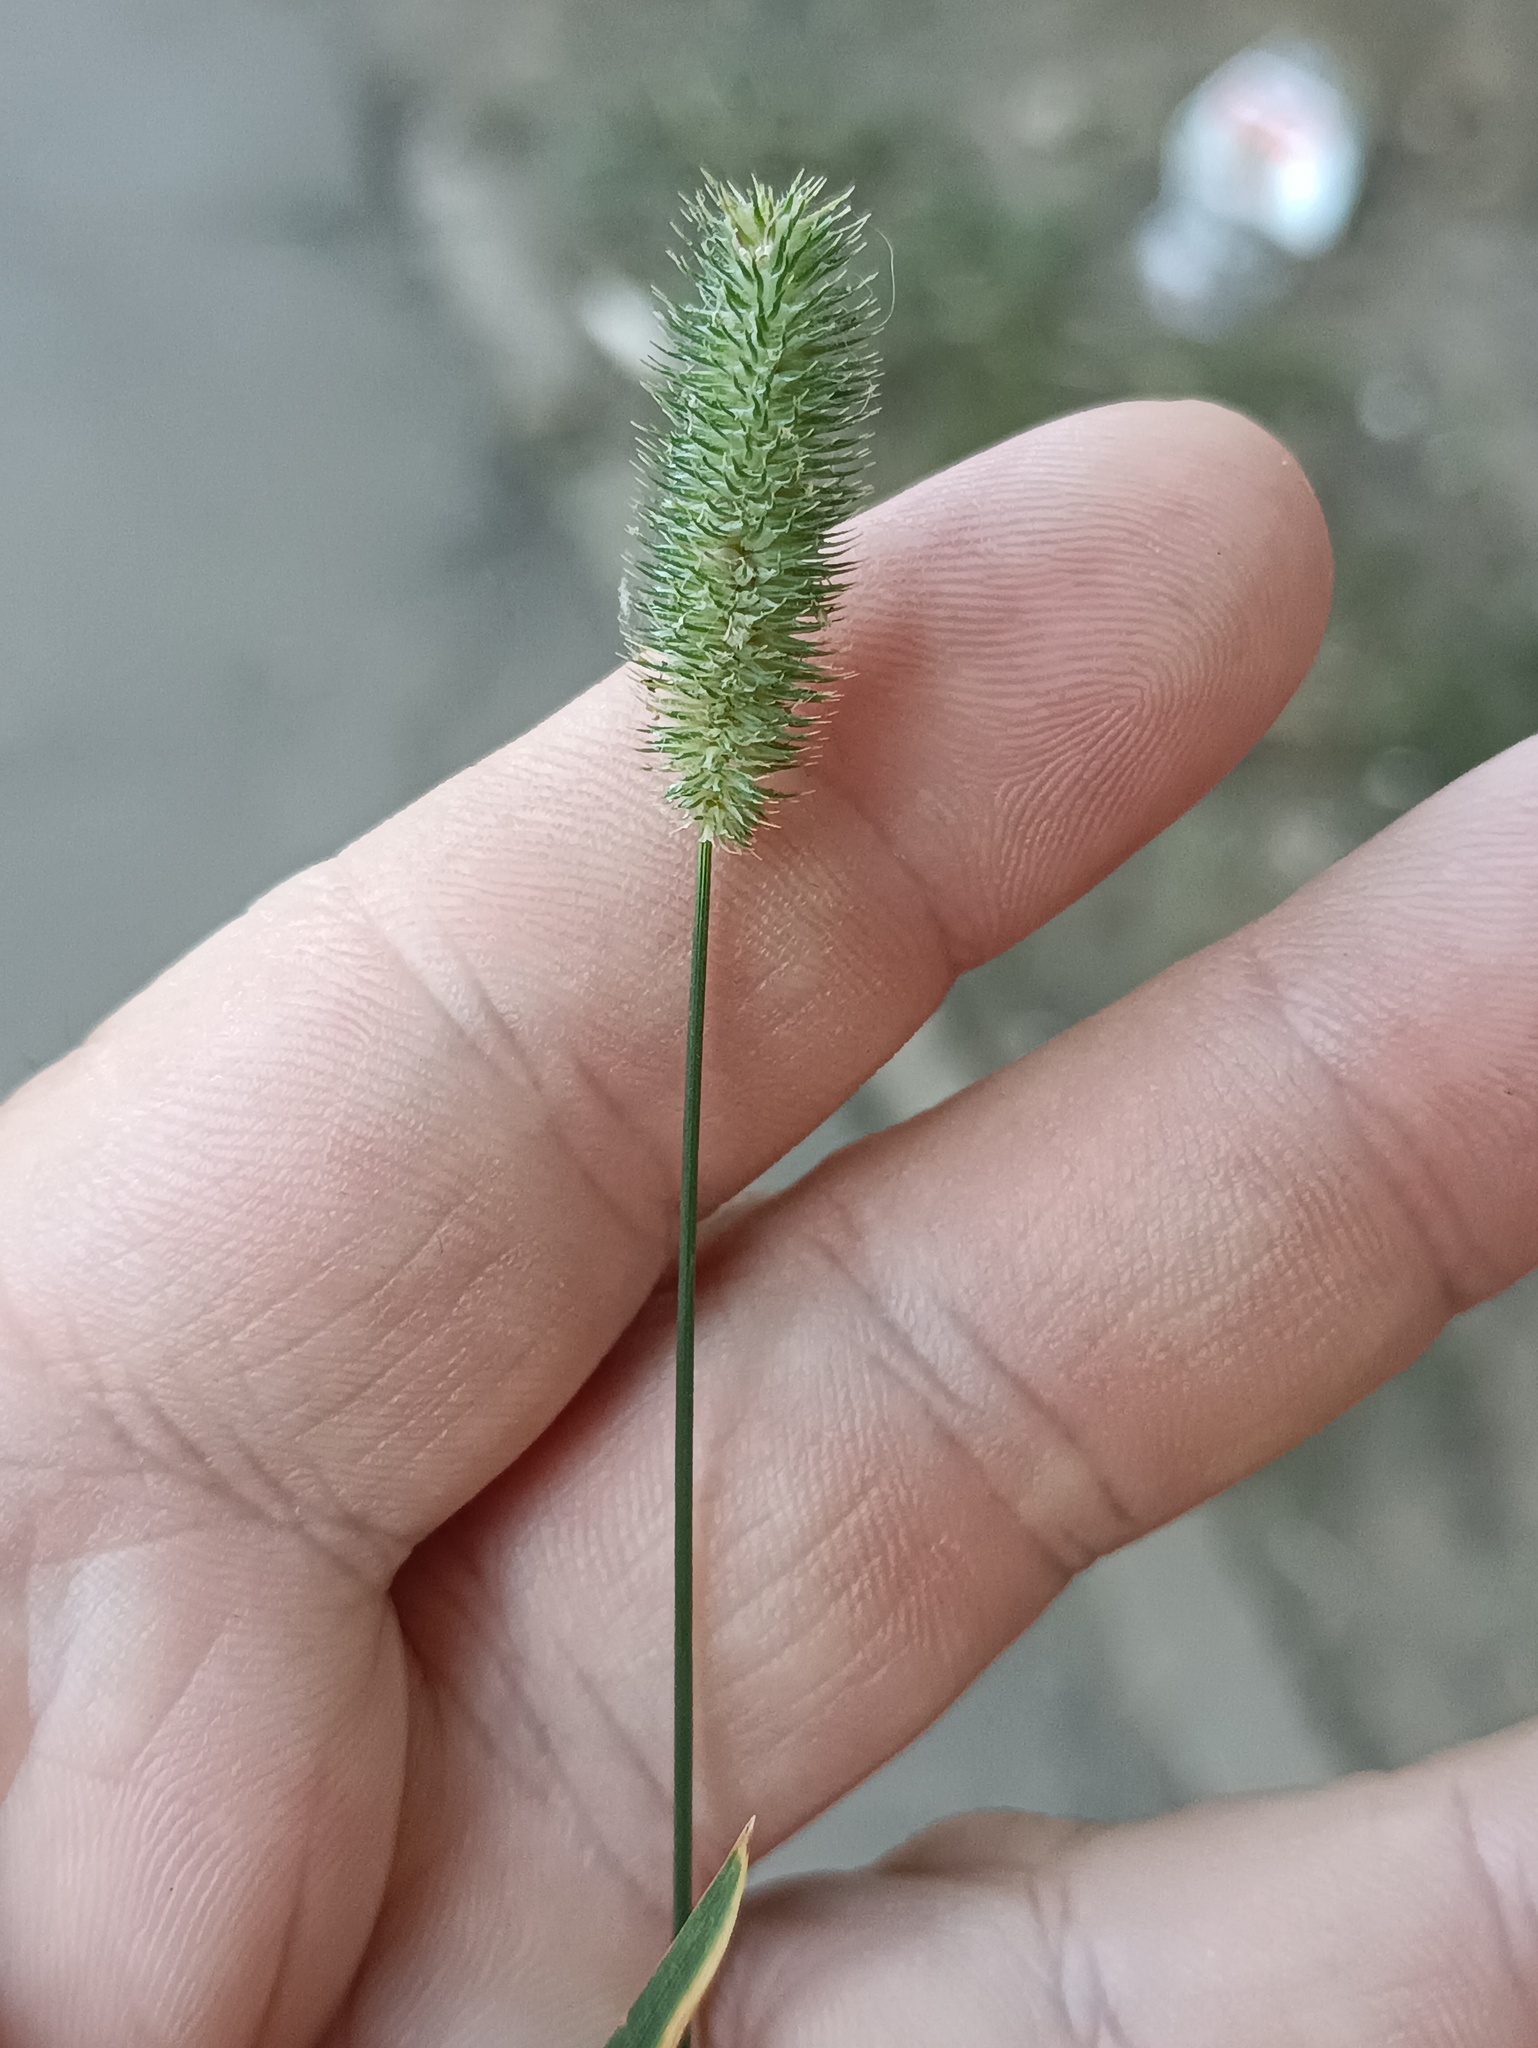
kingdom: Plantae
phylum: Tracheophyta
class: Liliopsida
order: Poales
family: Poaceae
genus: Phleum
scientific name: Phleum pratense
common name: Timothy grass
